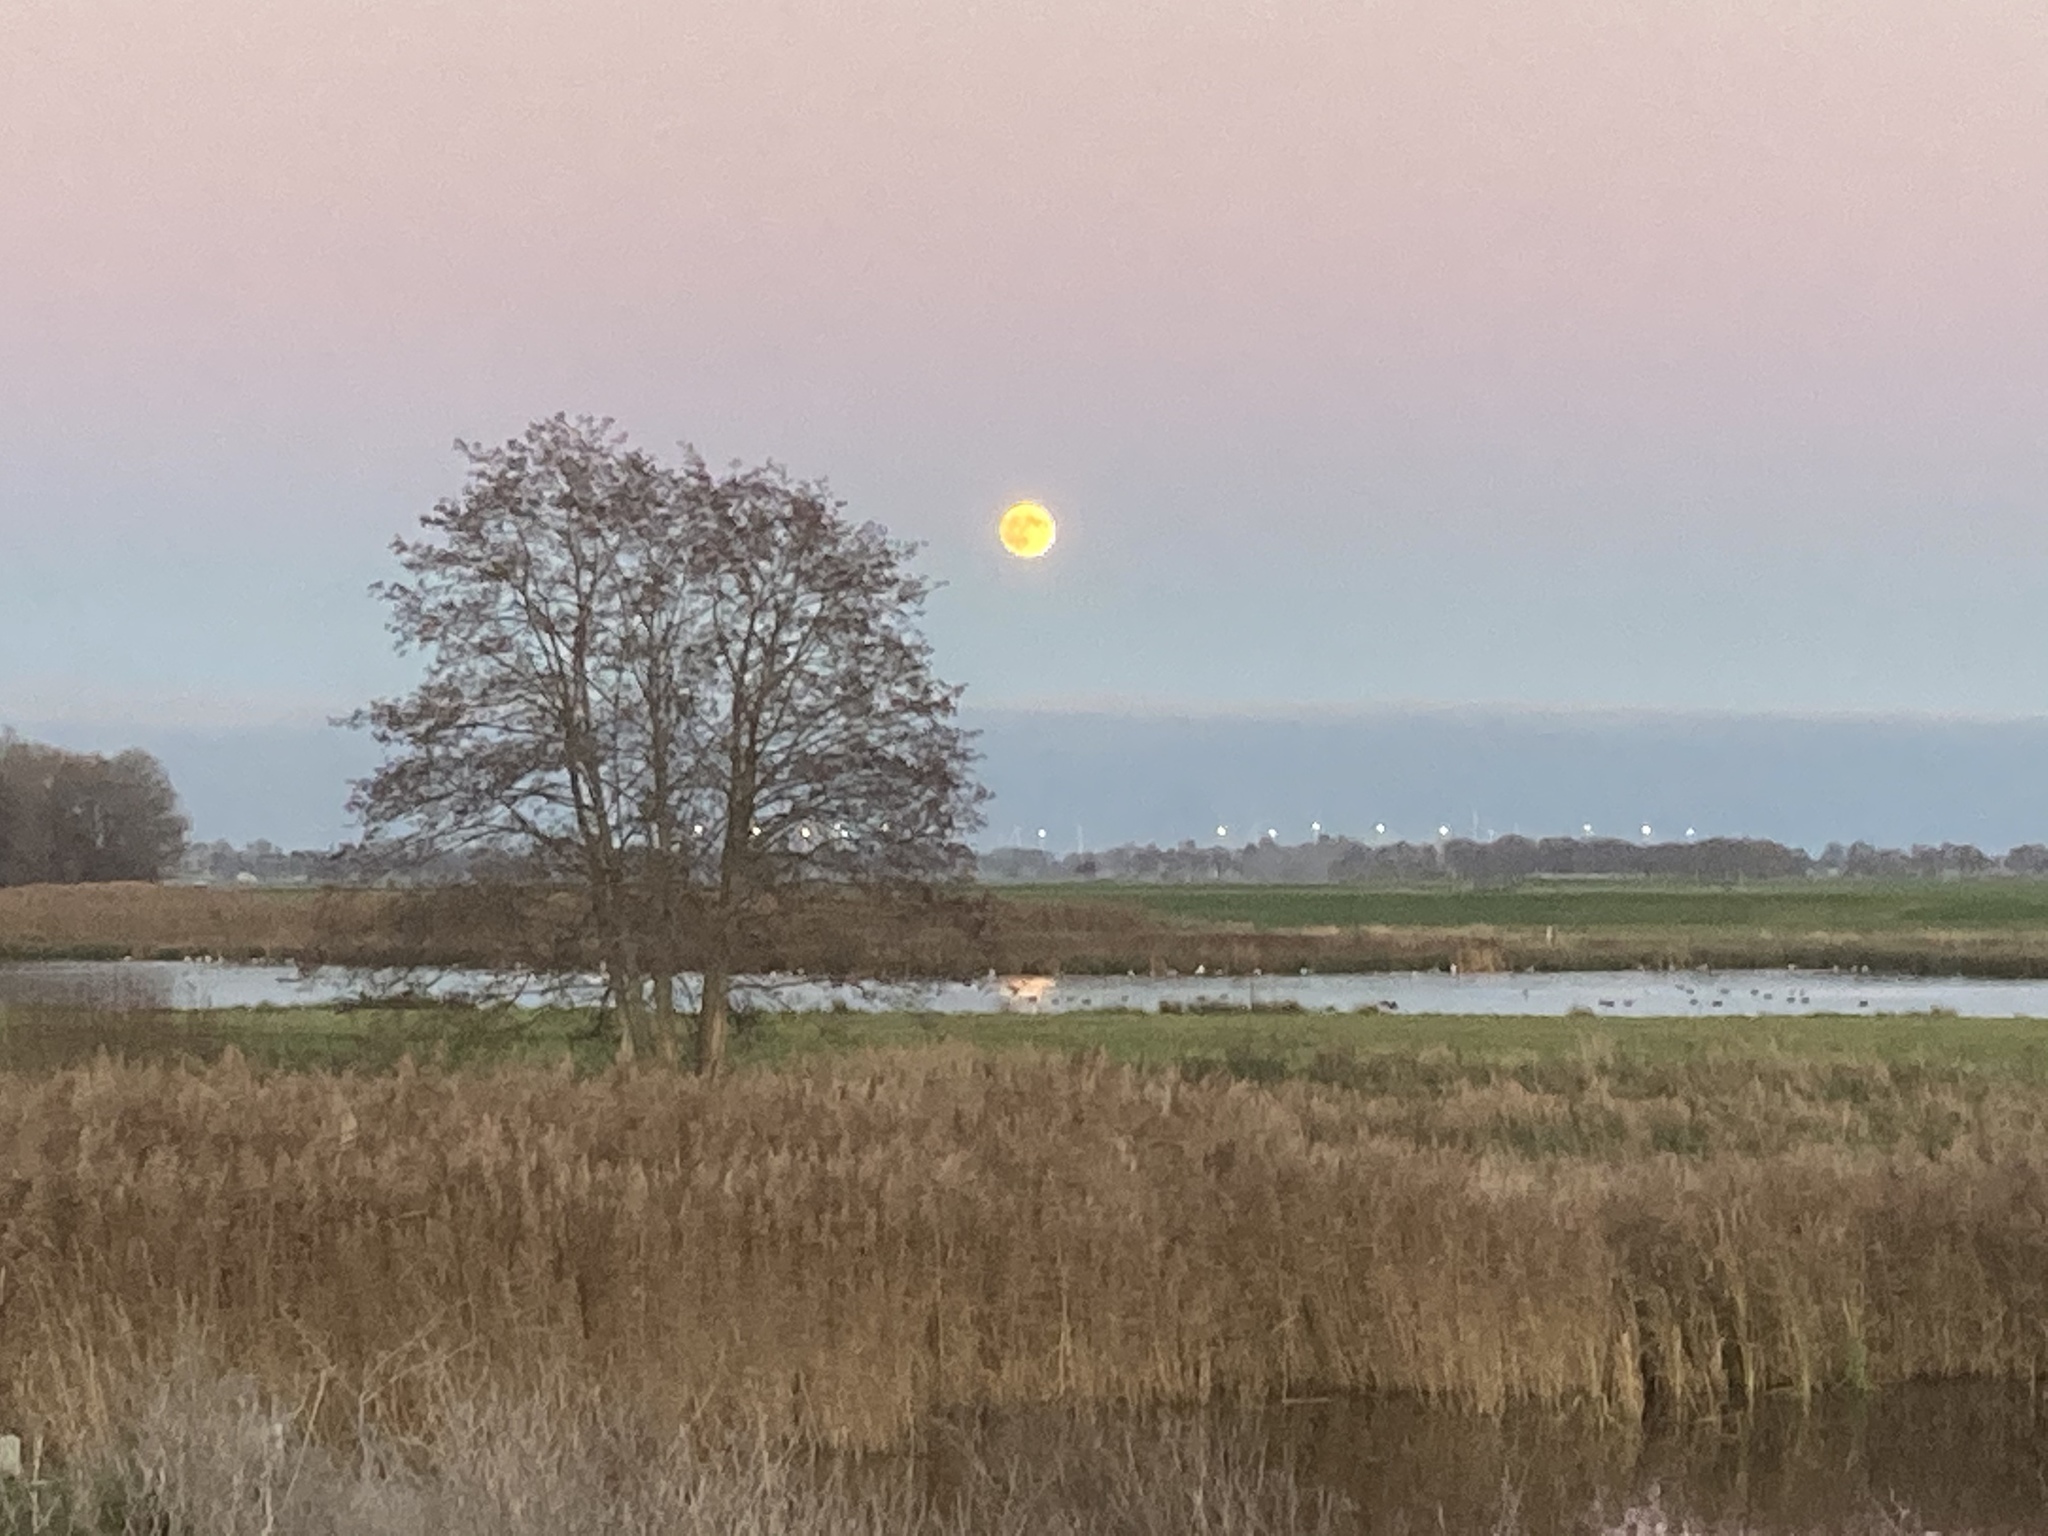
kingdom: Plantae
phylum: Tracheophyta
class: Liliopsida
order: Poales
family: Poaceae
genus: Phragmites
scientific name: Phragmites australis
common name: Common reed
